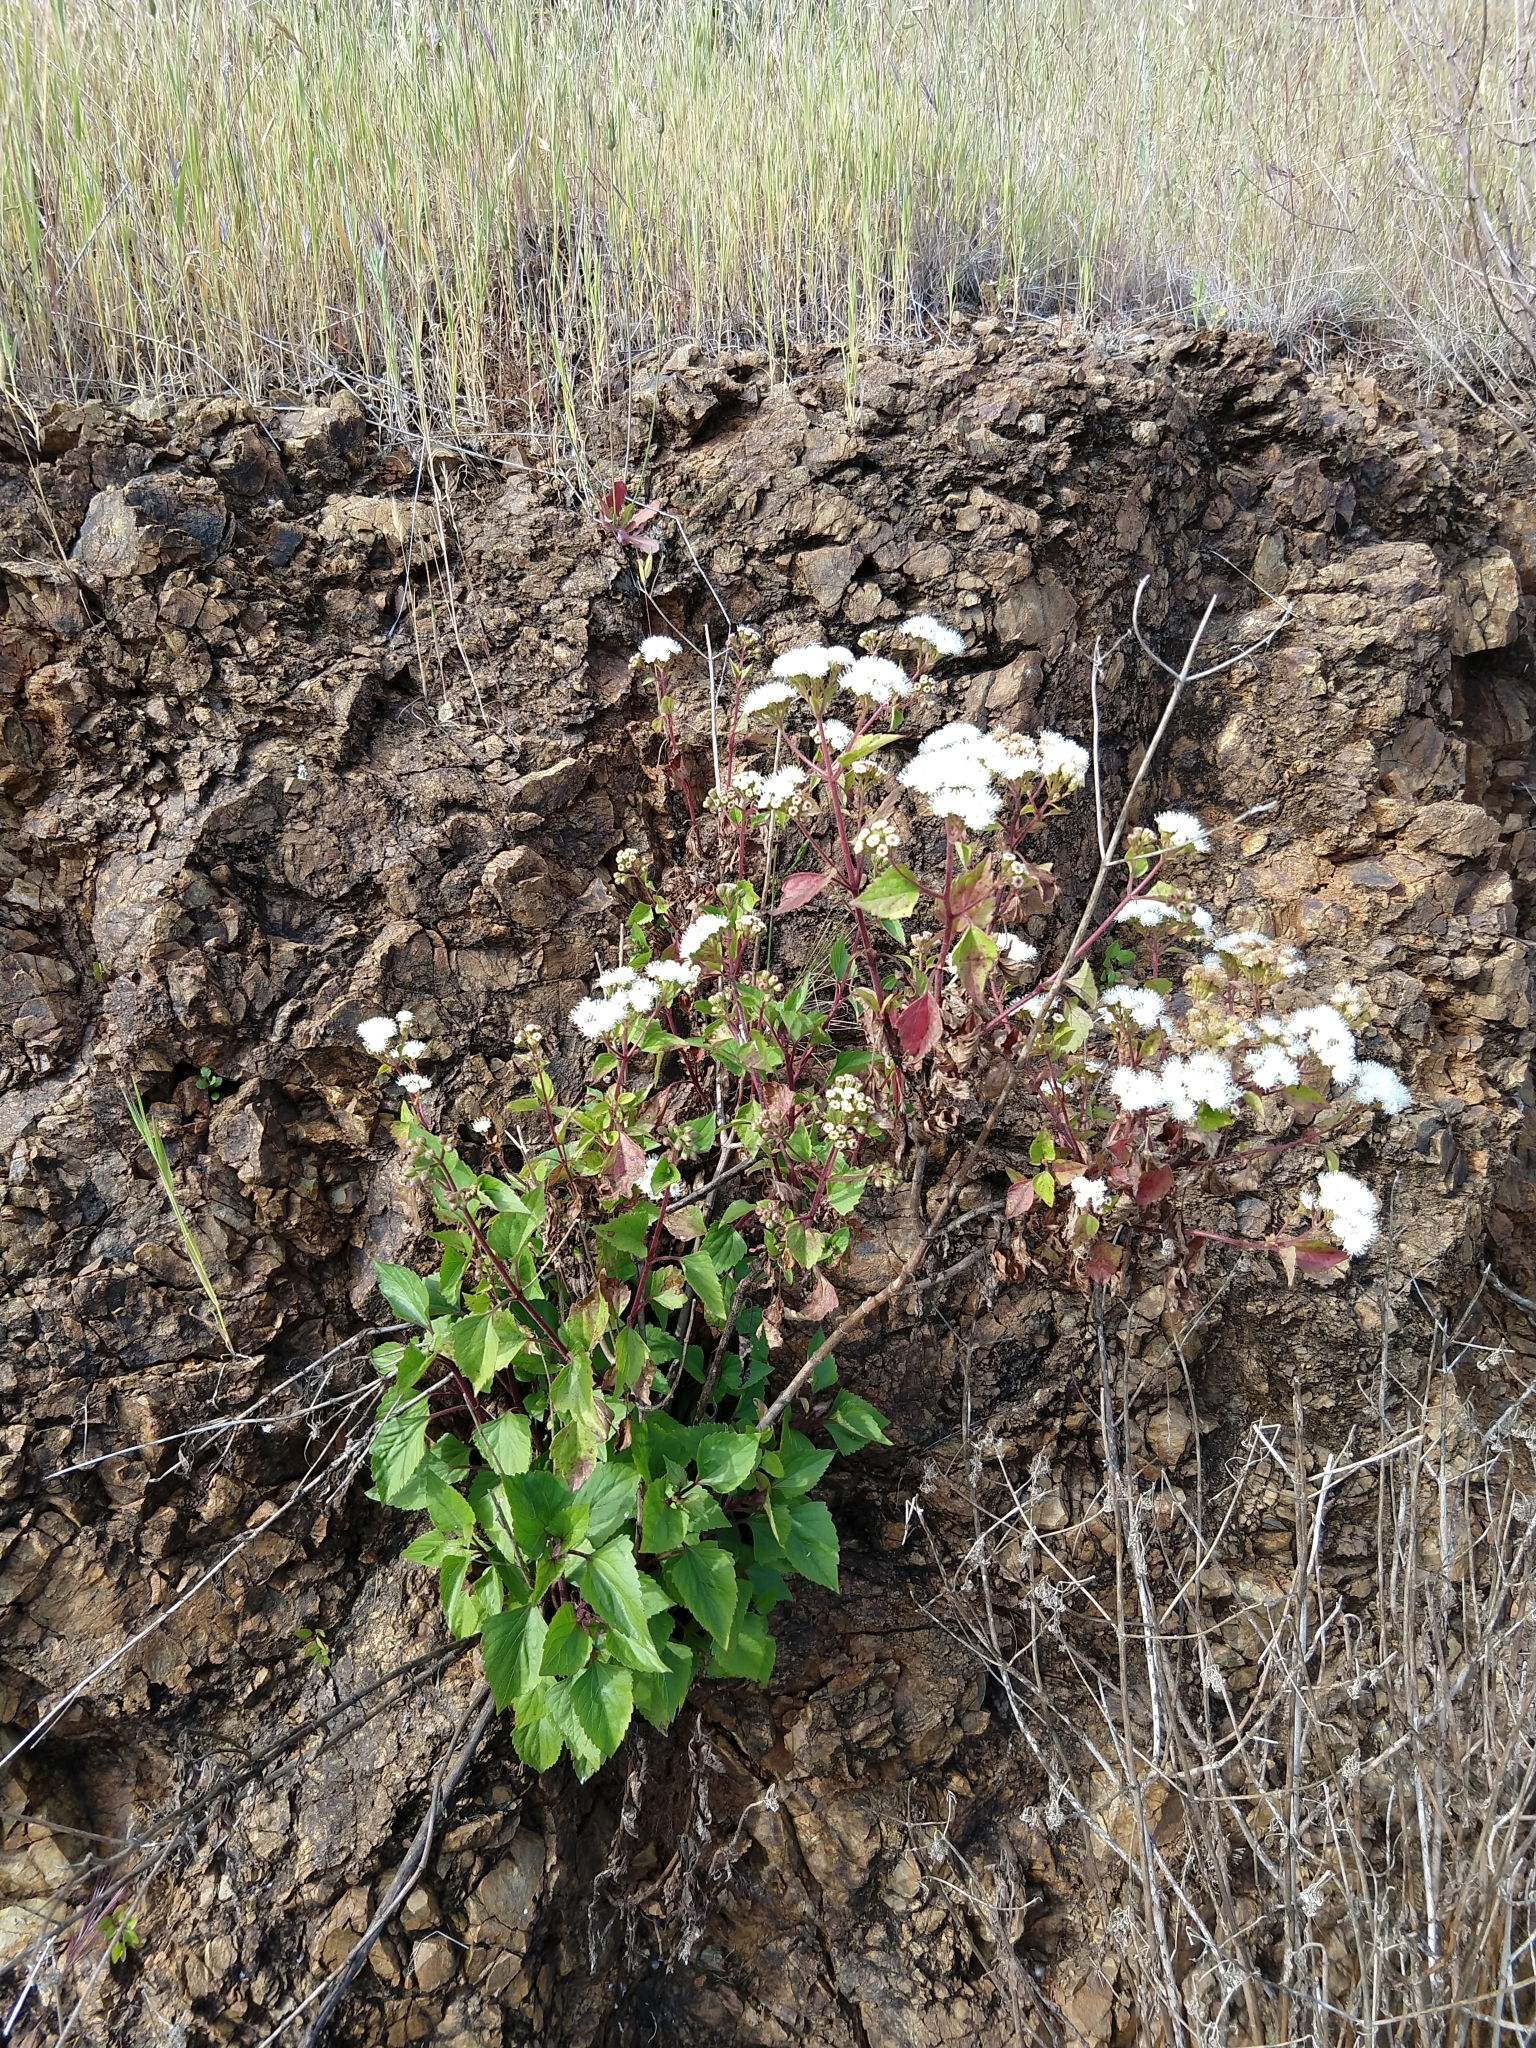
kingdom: Plantae
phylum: Tracheophyta
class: Magnoliopsida
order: Asterales
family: Asteraceae
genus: Ageratina
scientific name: Ageratina adenophora
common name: Sticky snakeroot
